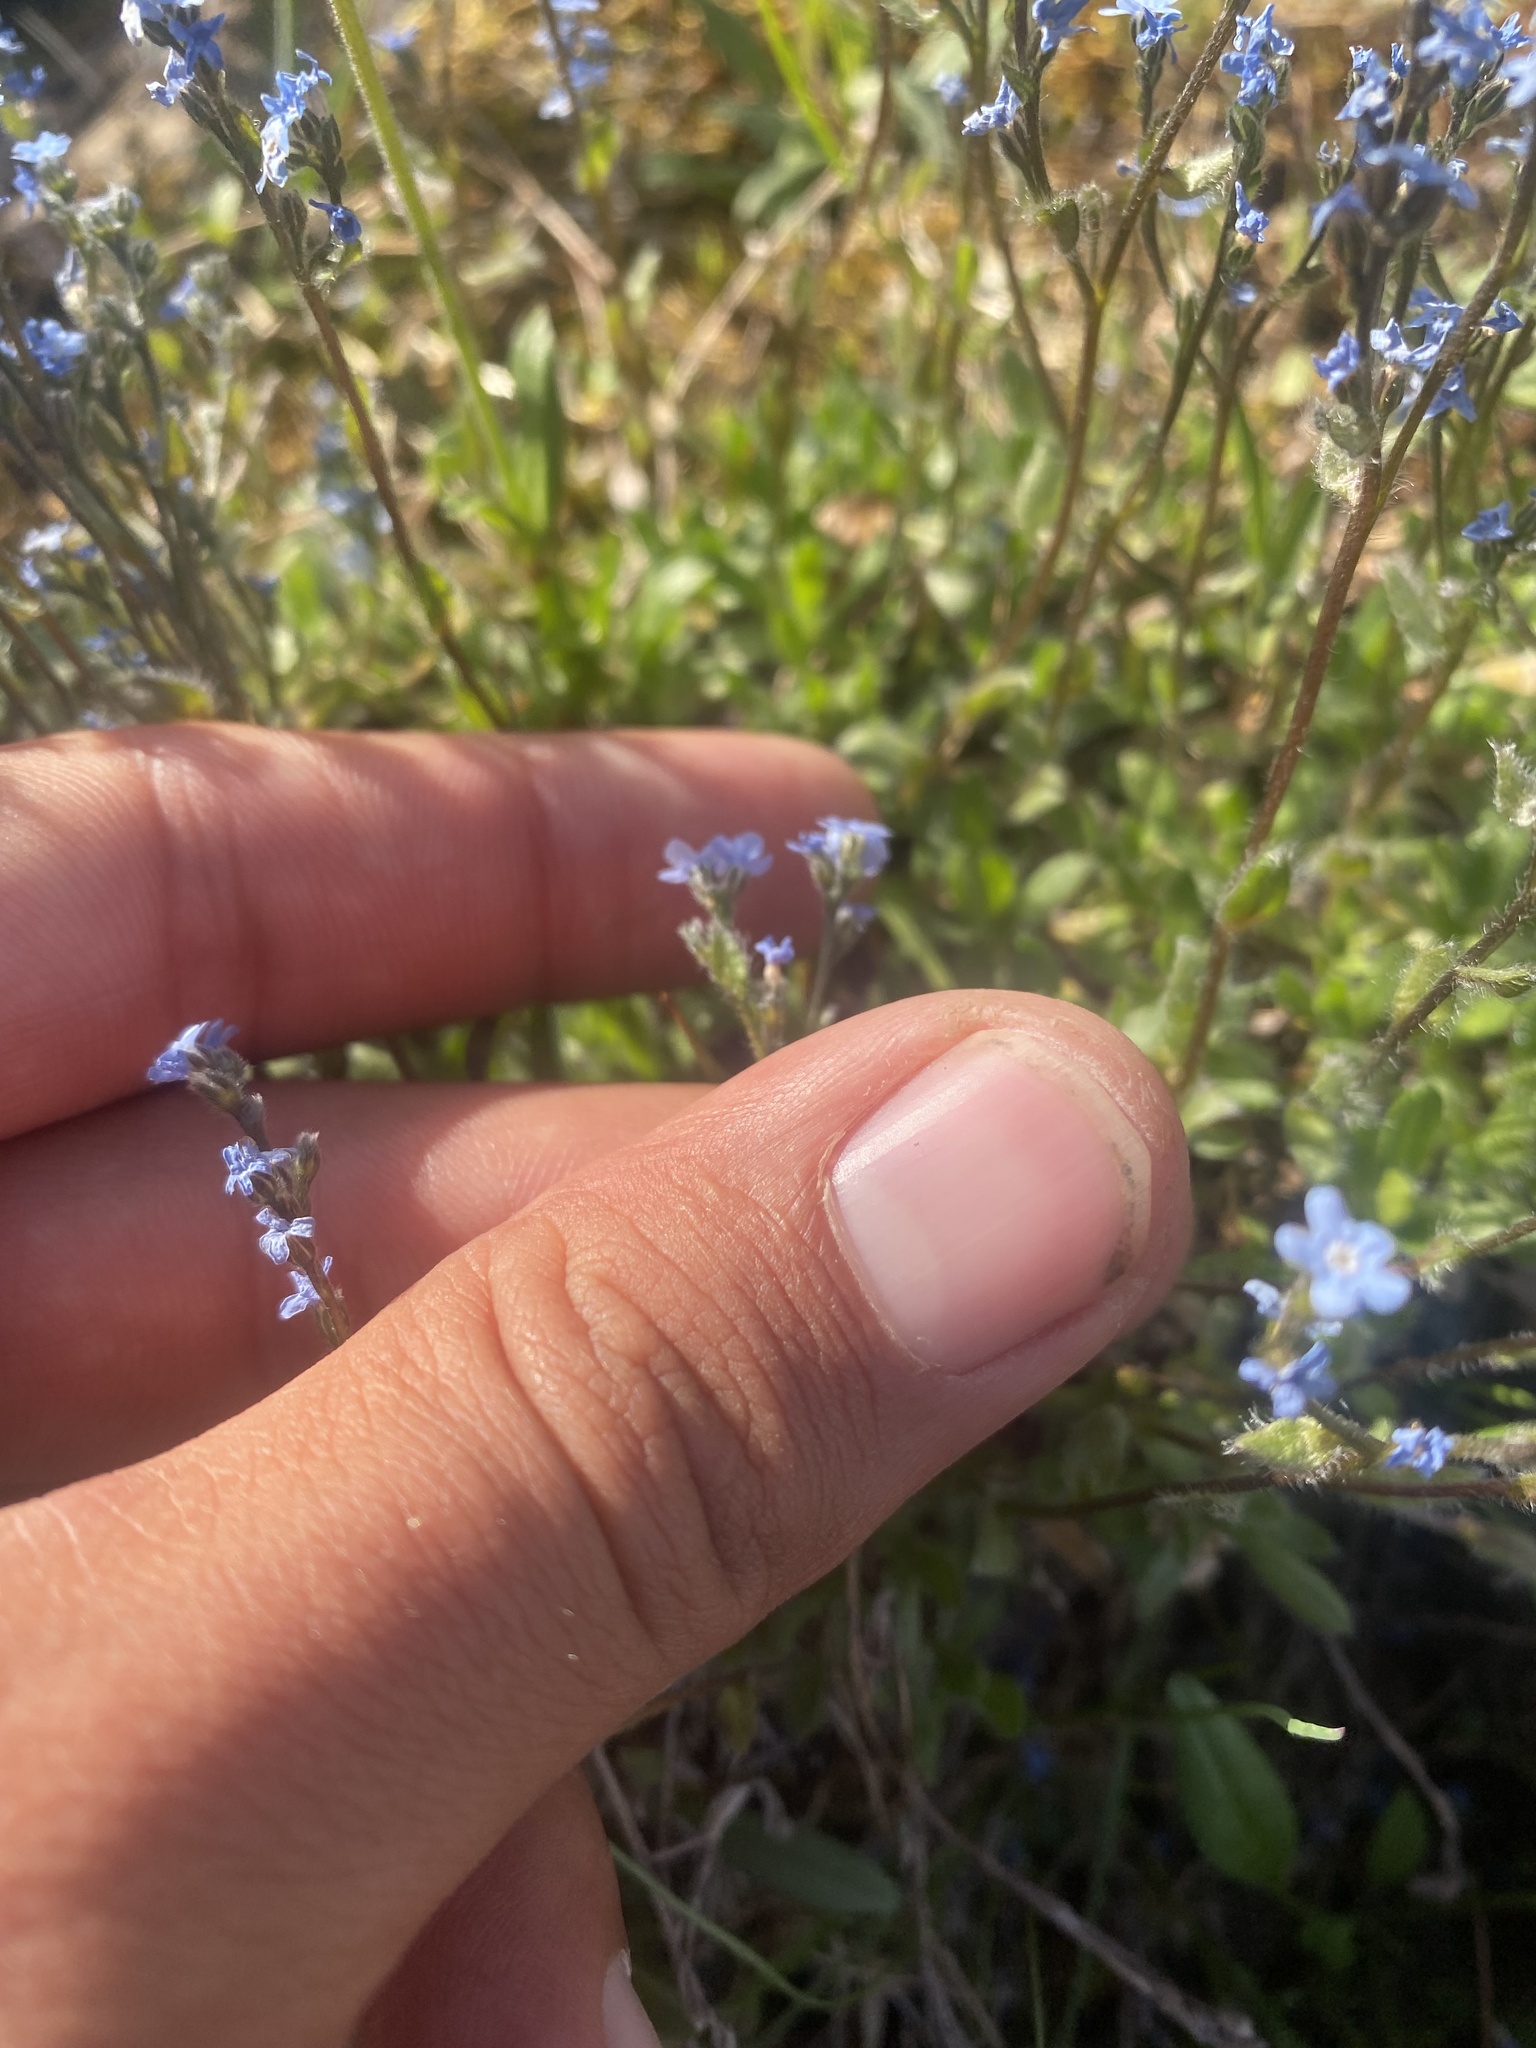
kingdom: Plantae
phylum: Tracheophyta
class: Magnoliopsida
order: Boraginales
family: Boraginaceae
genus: Eritrichium
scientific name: Eritrichium villosum
